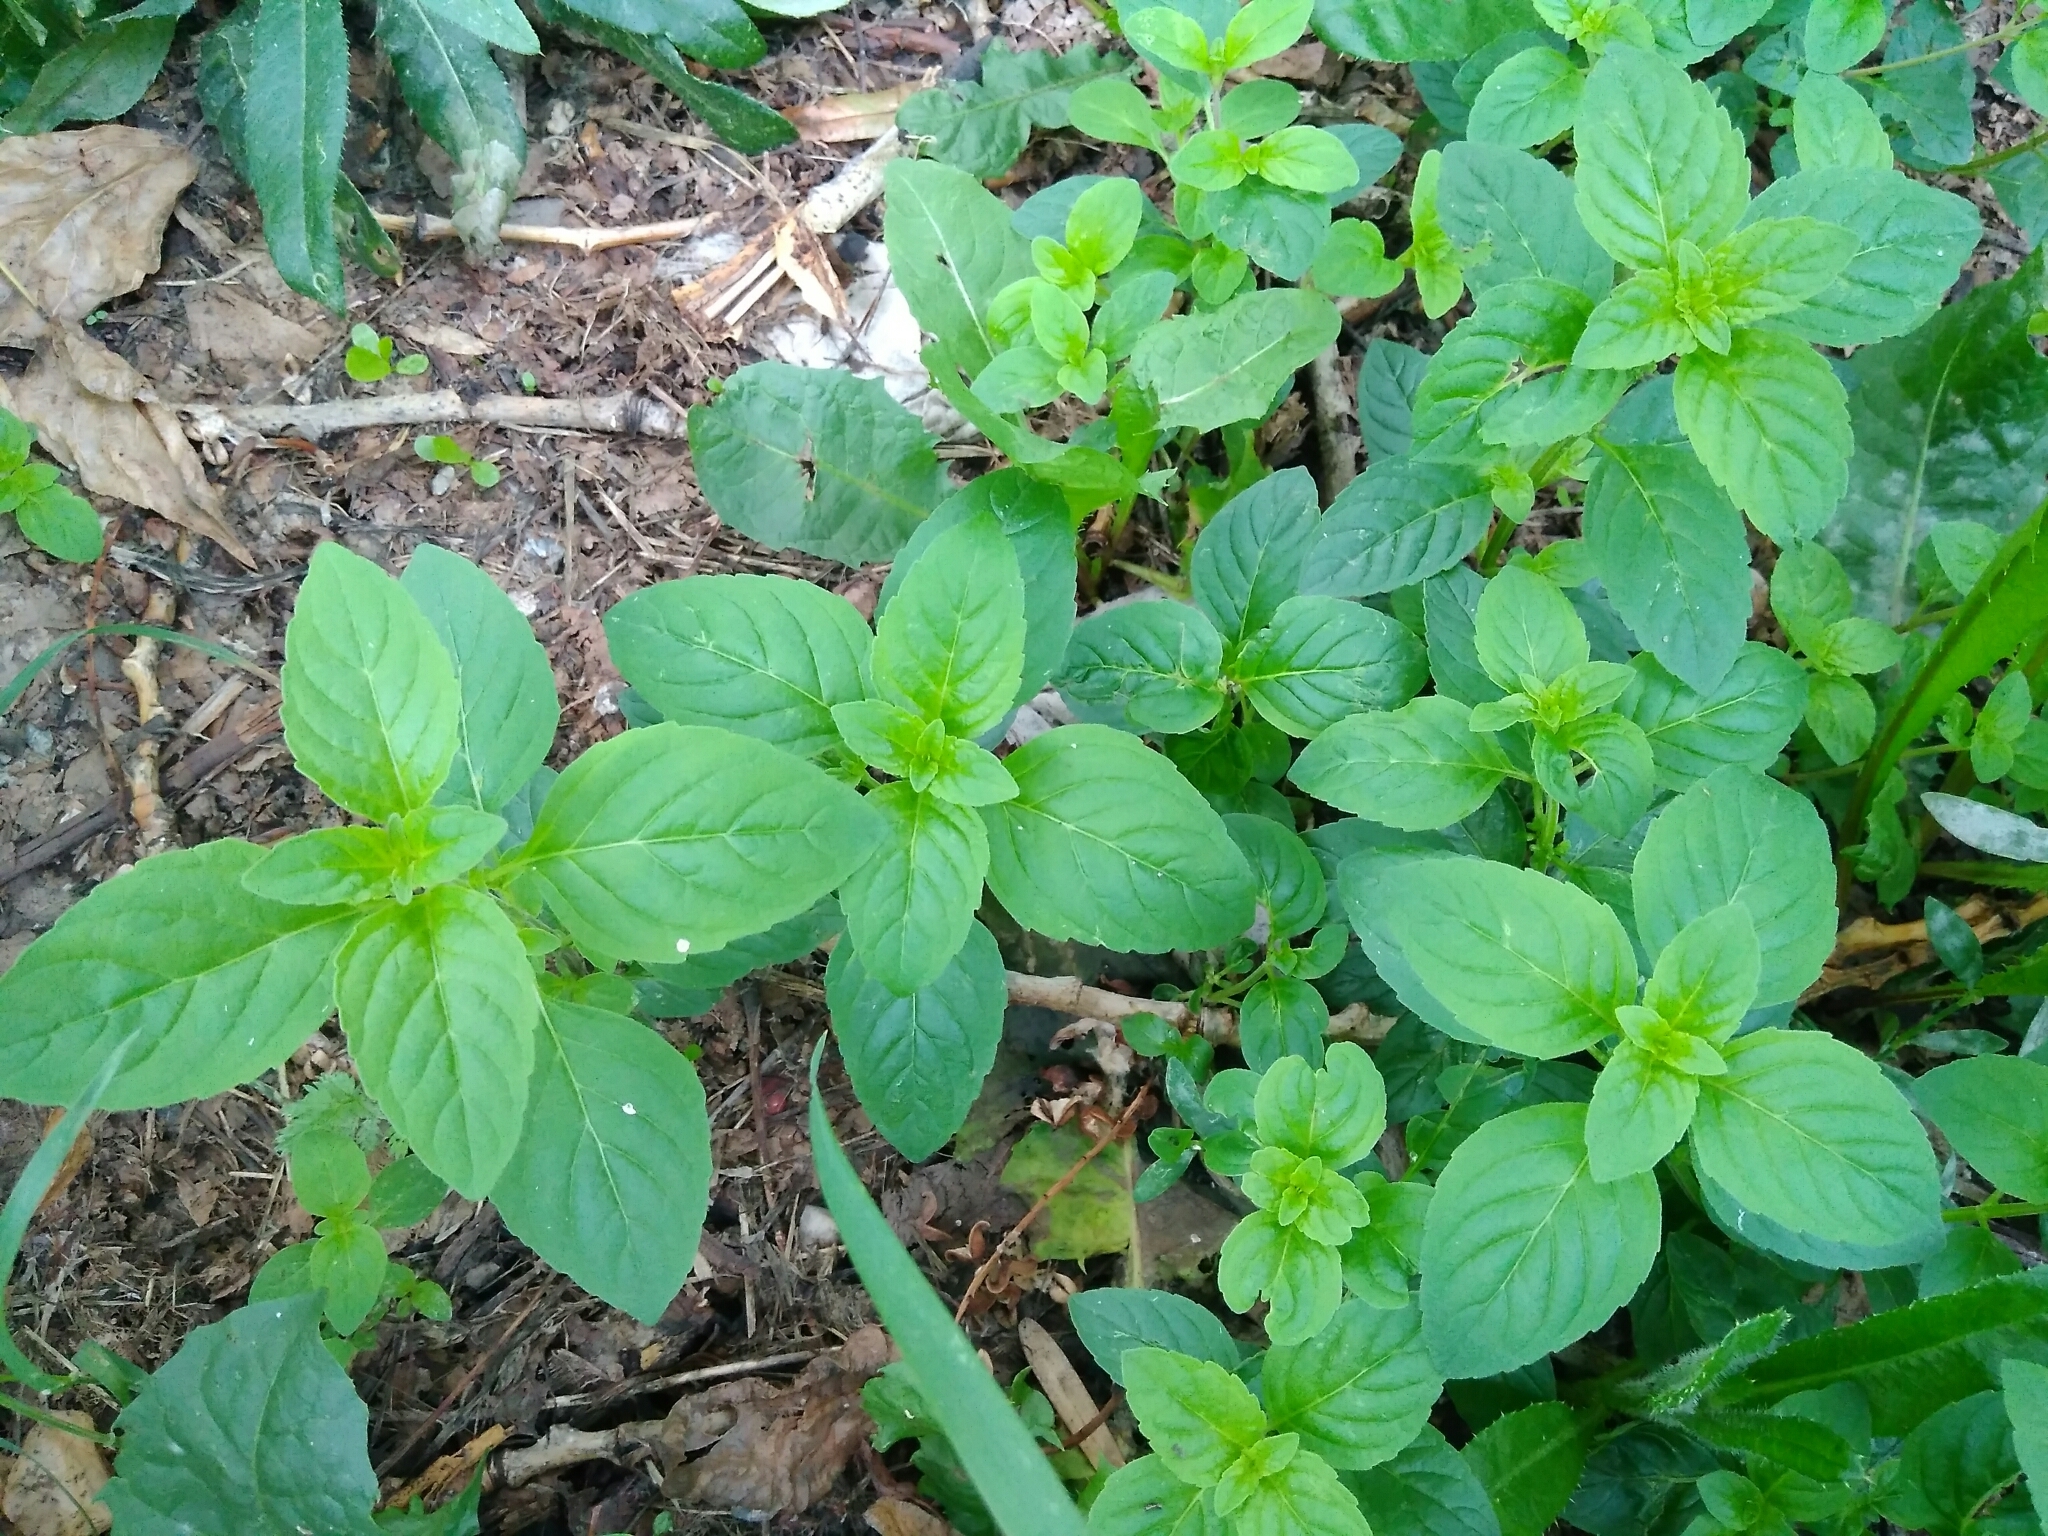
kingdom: Plantae
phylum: Tracheophyta
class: Magnoliopsida
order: Lamiales
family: Lamiaceae
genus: Mentha
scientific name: Mentha arvensis
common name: Corn mint
